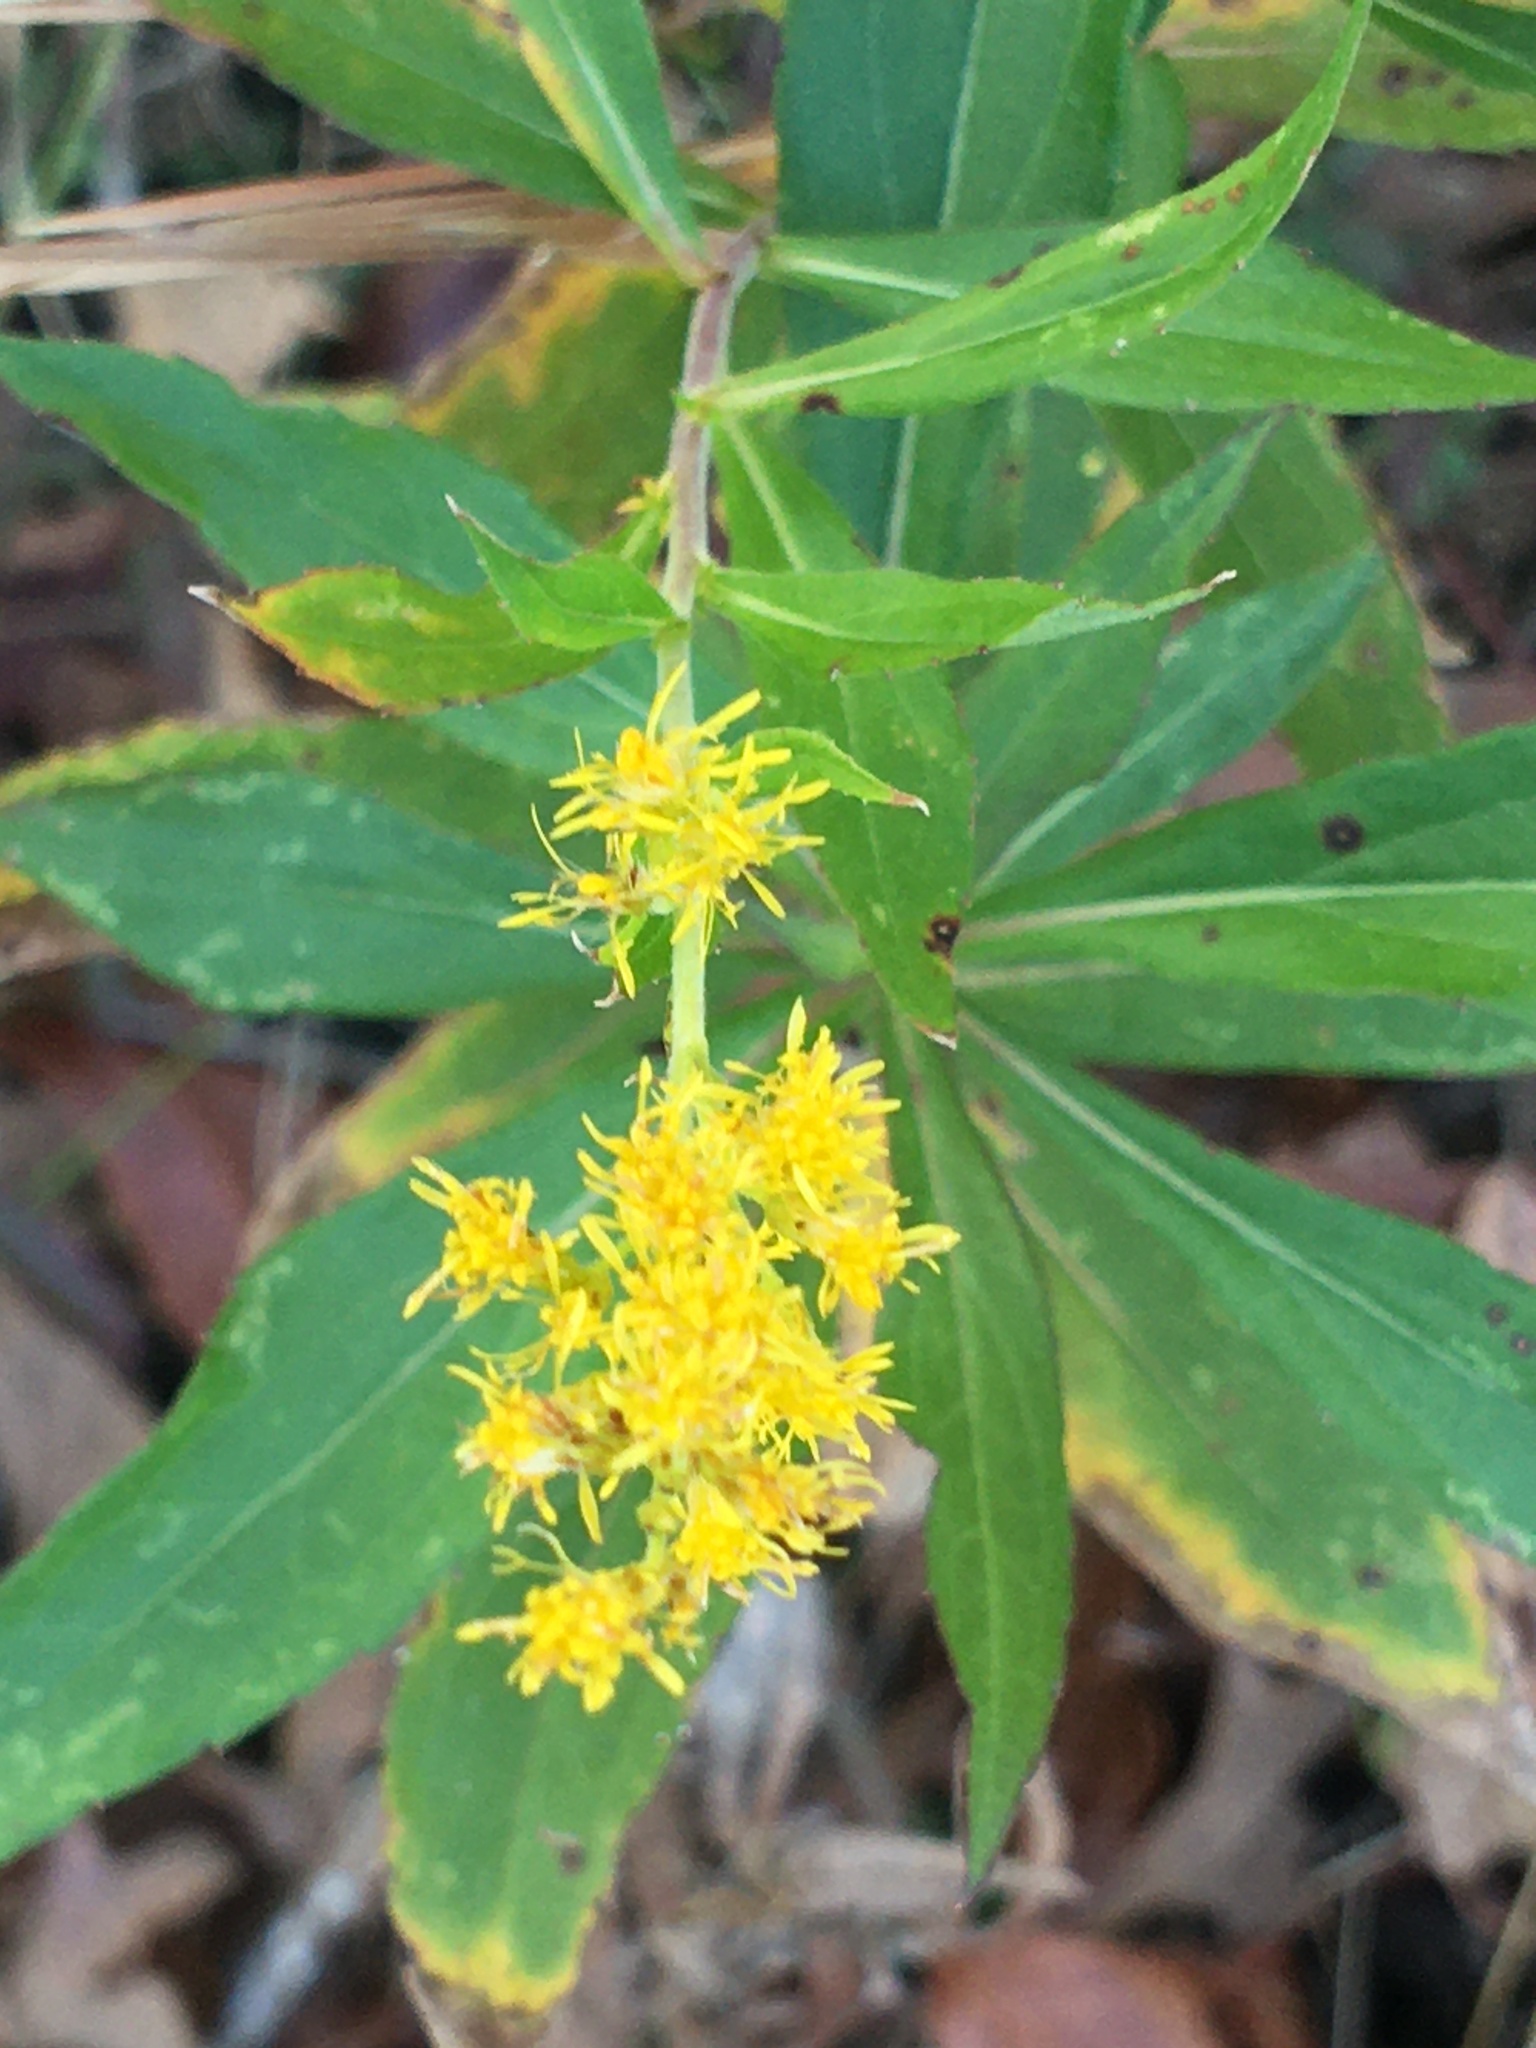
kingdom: Plantae
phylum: Tracheophyta
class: Magnoliopsida
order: Asterales
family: Asteraceae
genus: Solidago
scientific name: Solidago altissima
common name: Late goldenrod
